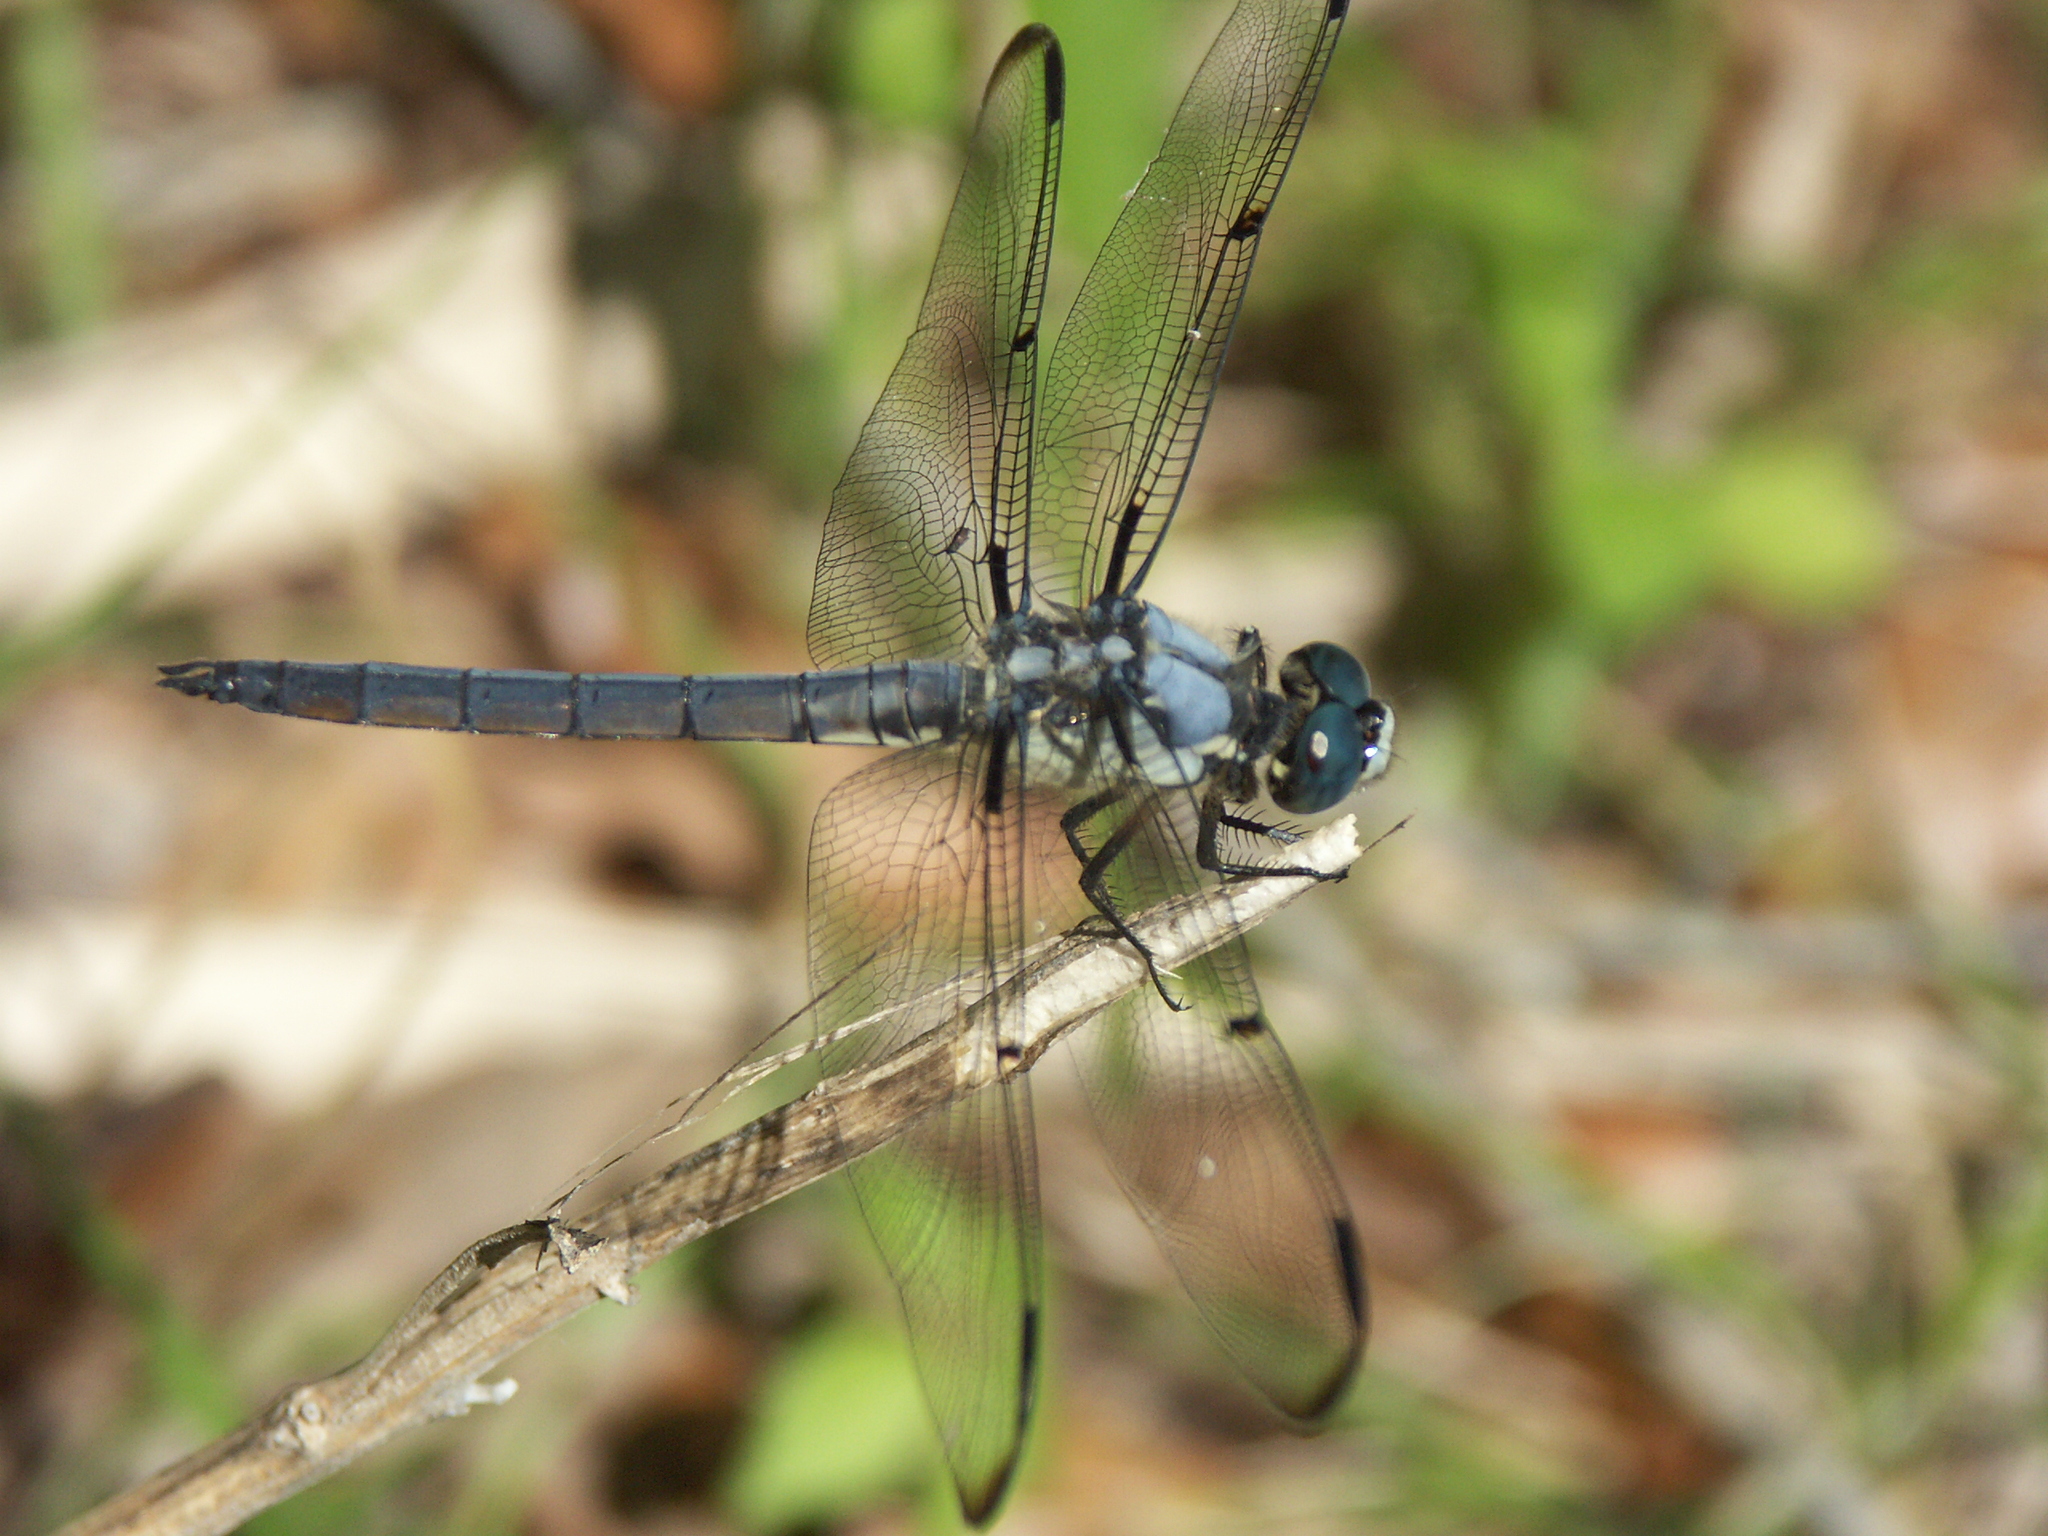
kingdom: Animalia
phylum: Arthropoda
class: Insecta
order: Odonata
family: Libellulidae
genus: Libellula
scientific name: Libellula vibrans
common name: Great blue skimmer
